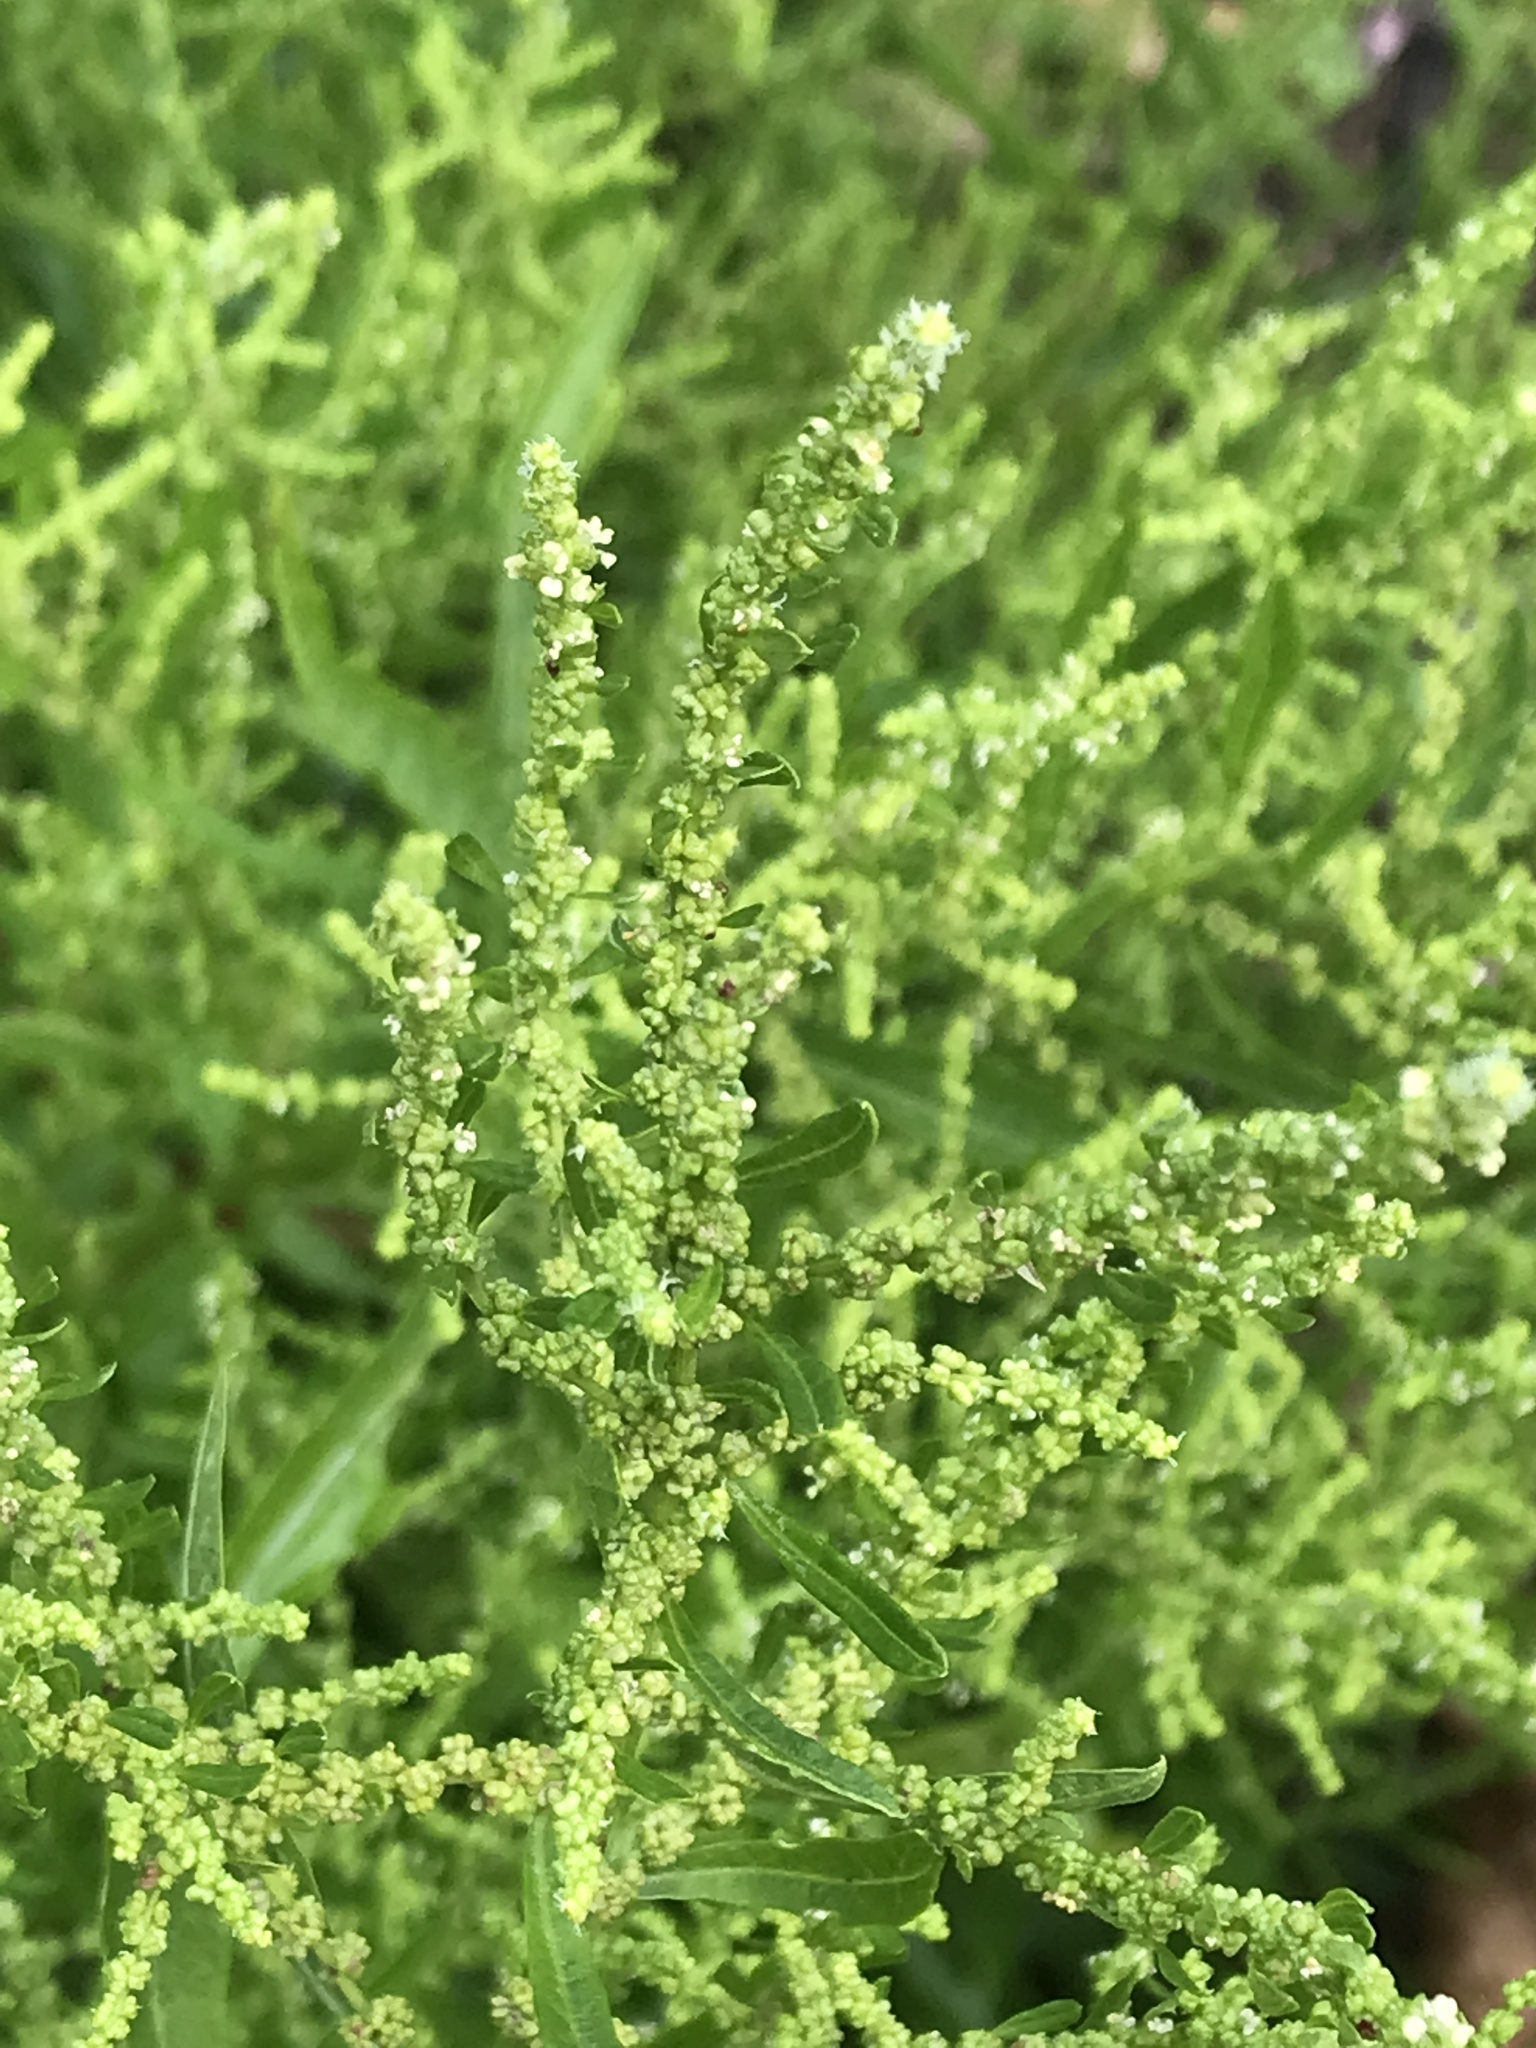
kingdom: Plantae
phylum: Tracheophyta
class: Magnoliopsida
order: Caryophyllales
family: Amaranthaceae
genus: Dysphania
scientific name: Dysphania ambrosioides
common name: Wormseed
